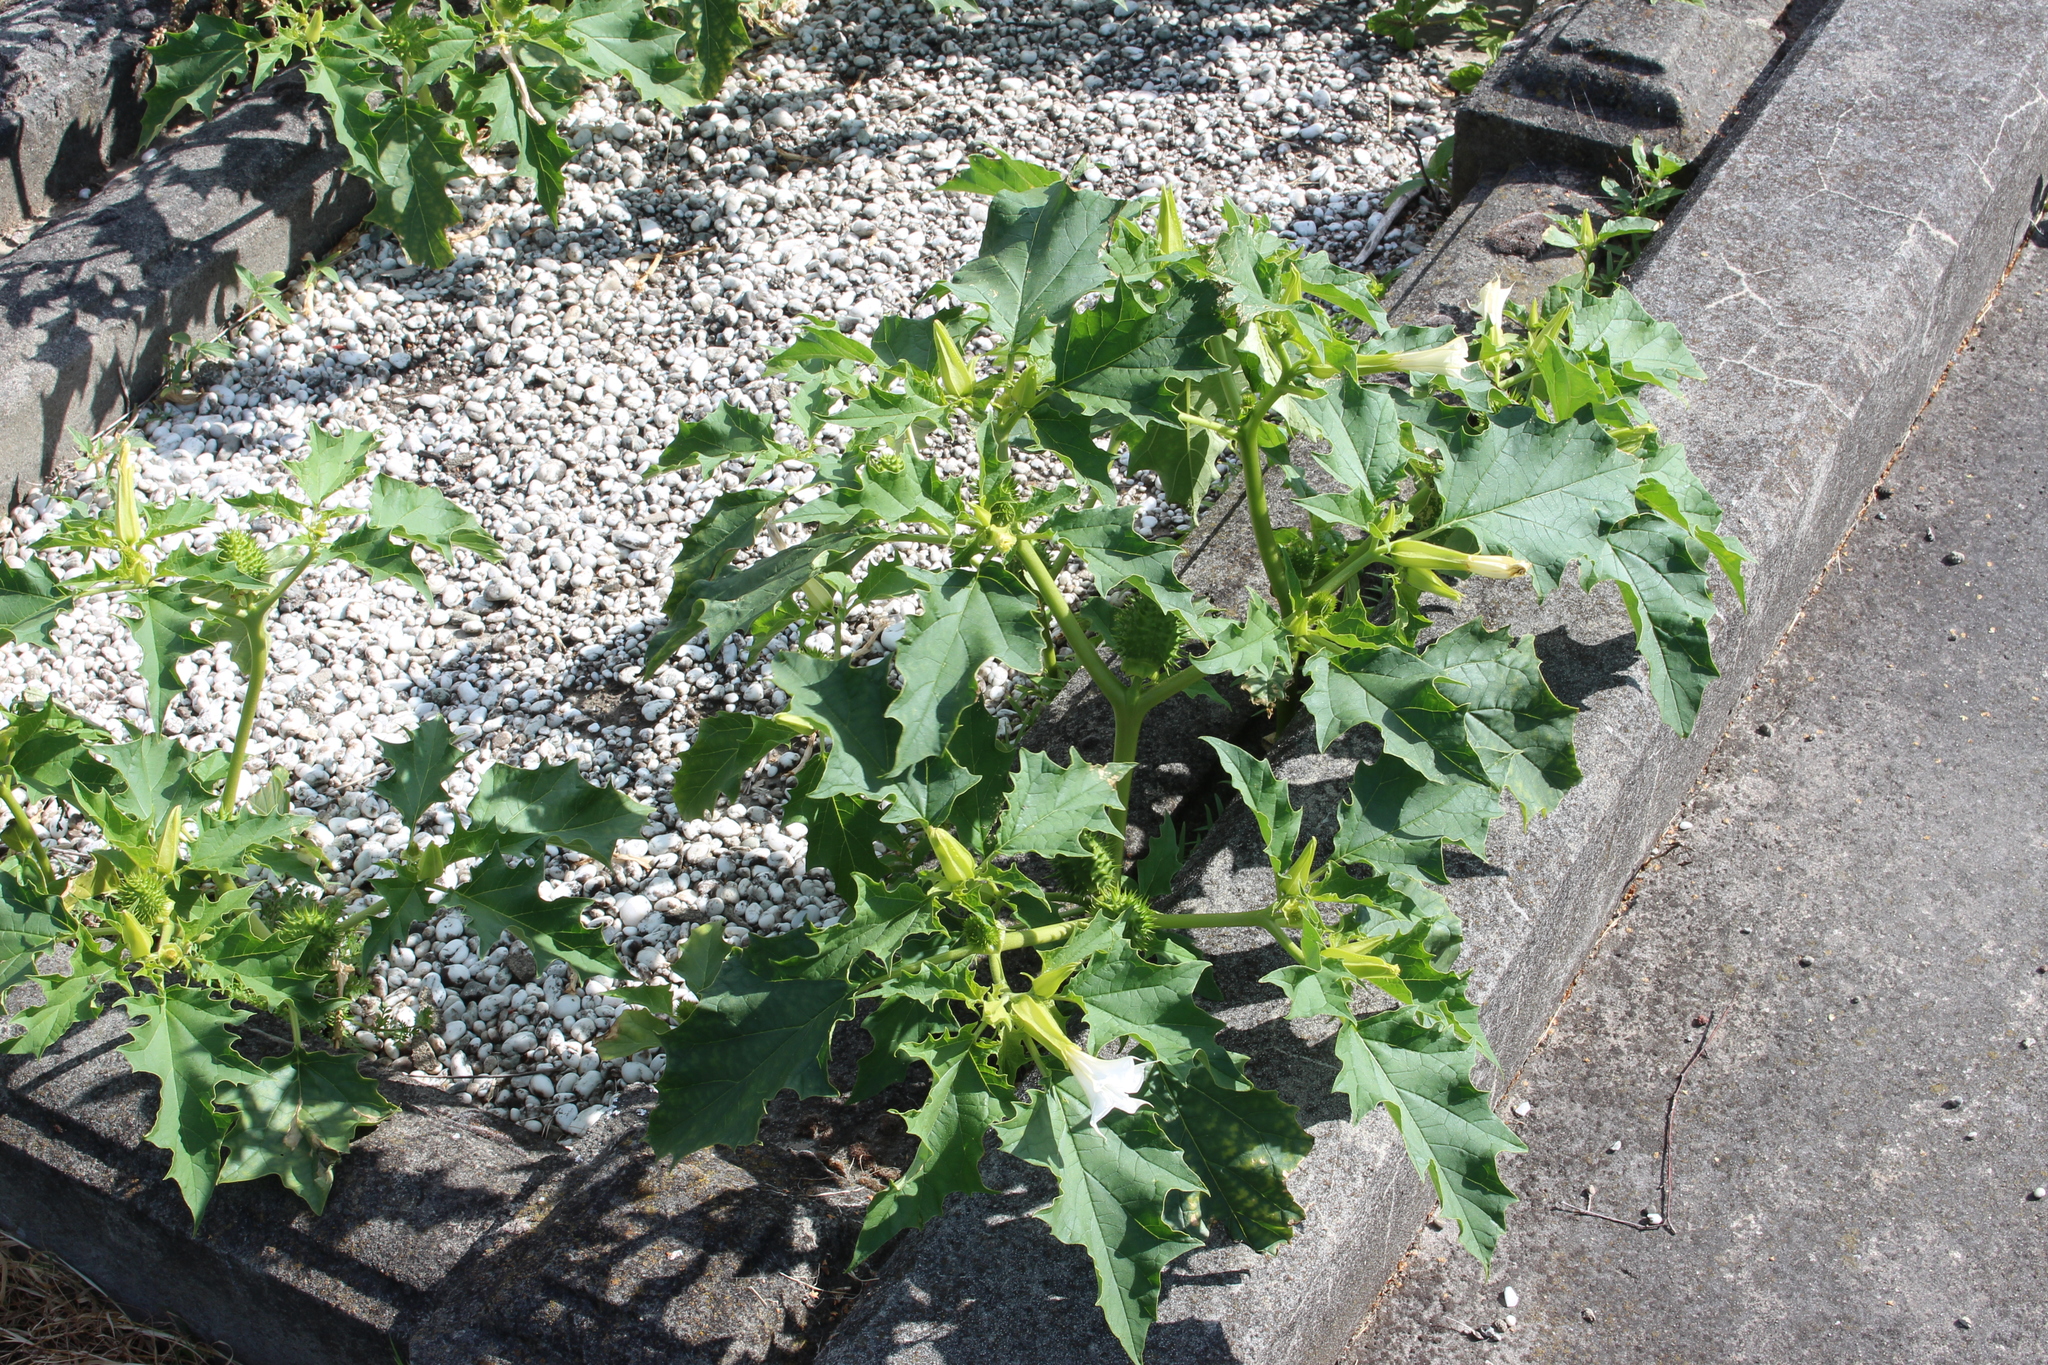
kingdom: Plantae
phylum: Tracheophyta
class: Magnoliopsida
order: Solanales
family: Solanaceae
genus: Datura
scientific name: Datura stramonium
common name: Thorn-apple
